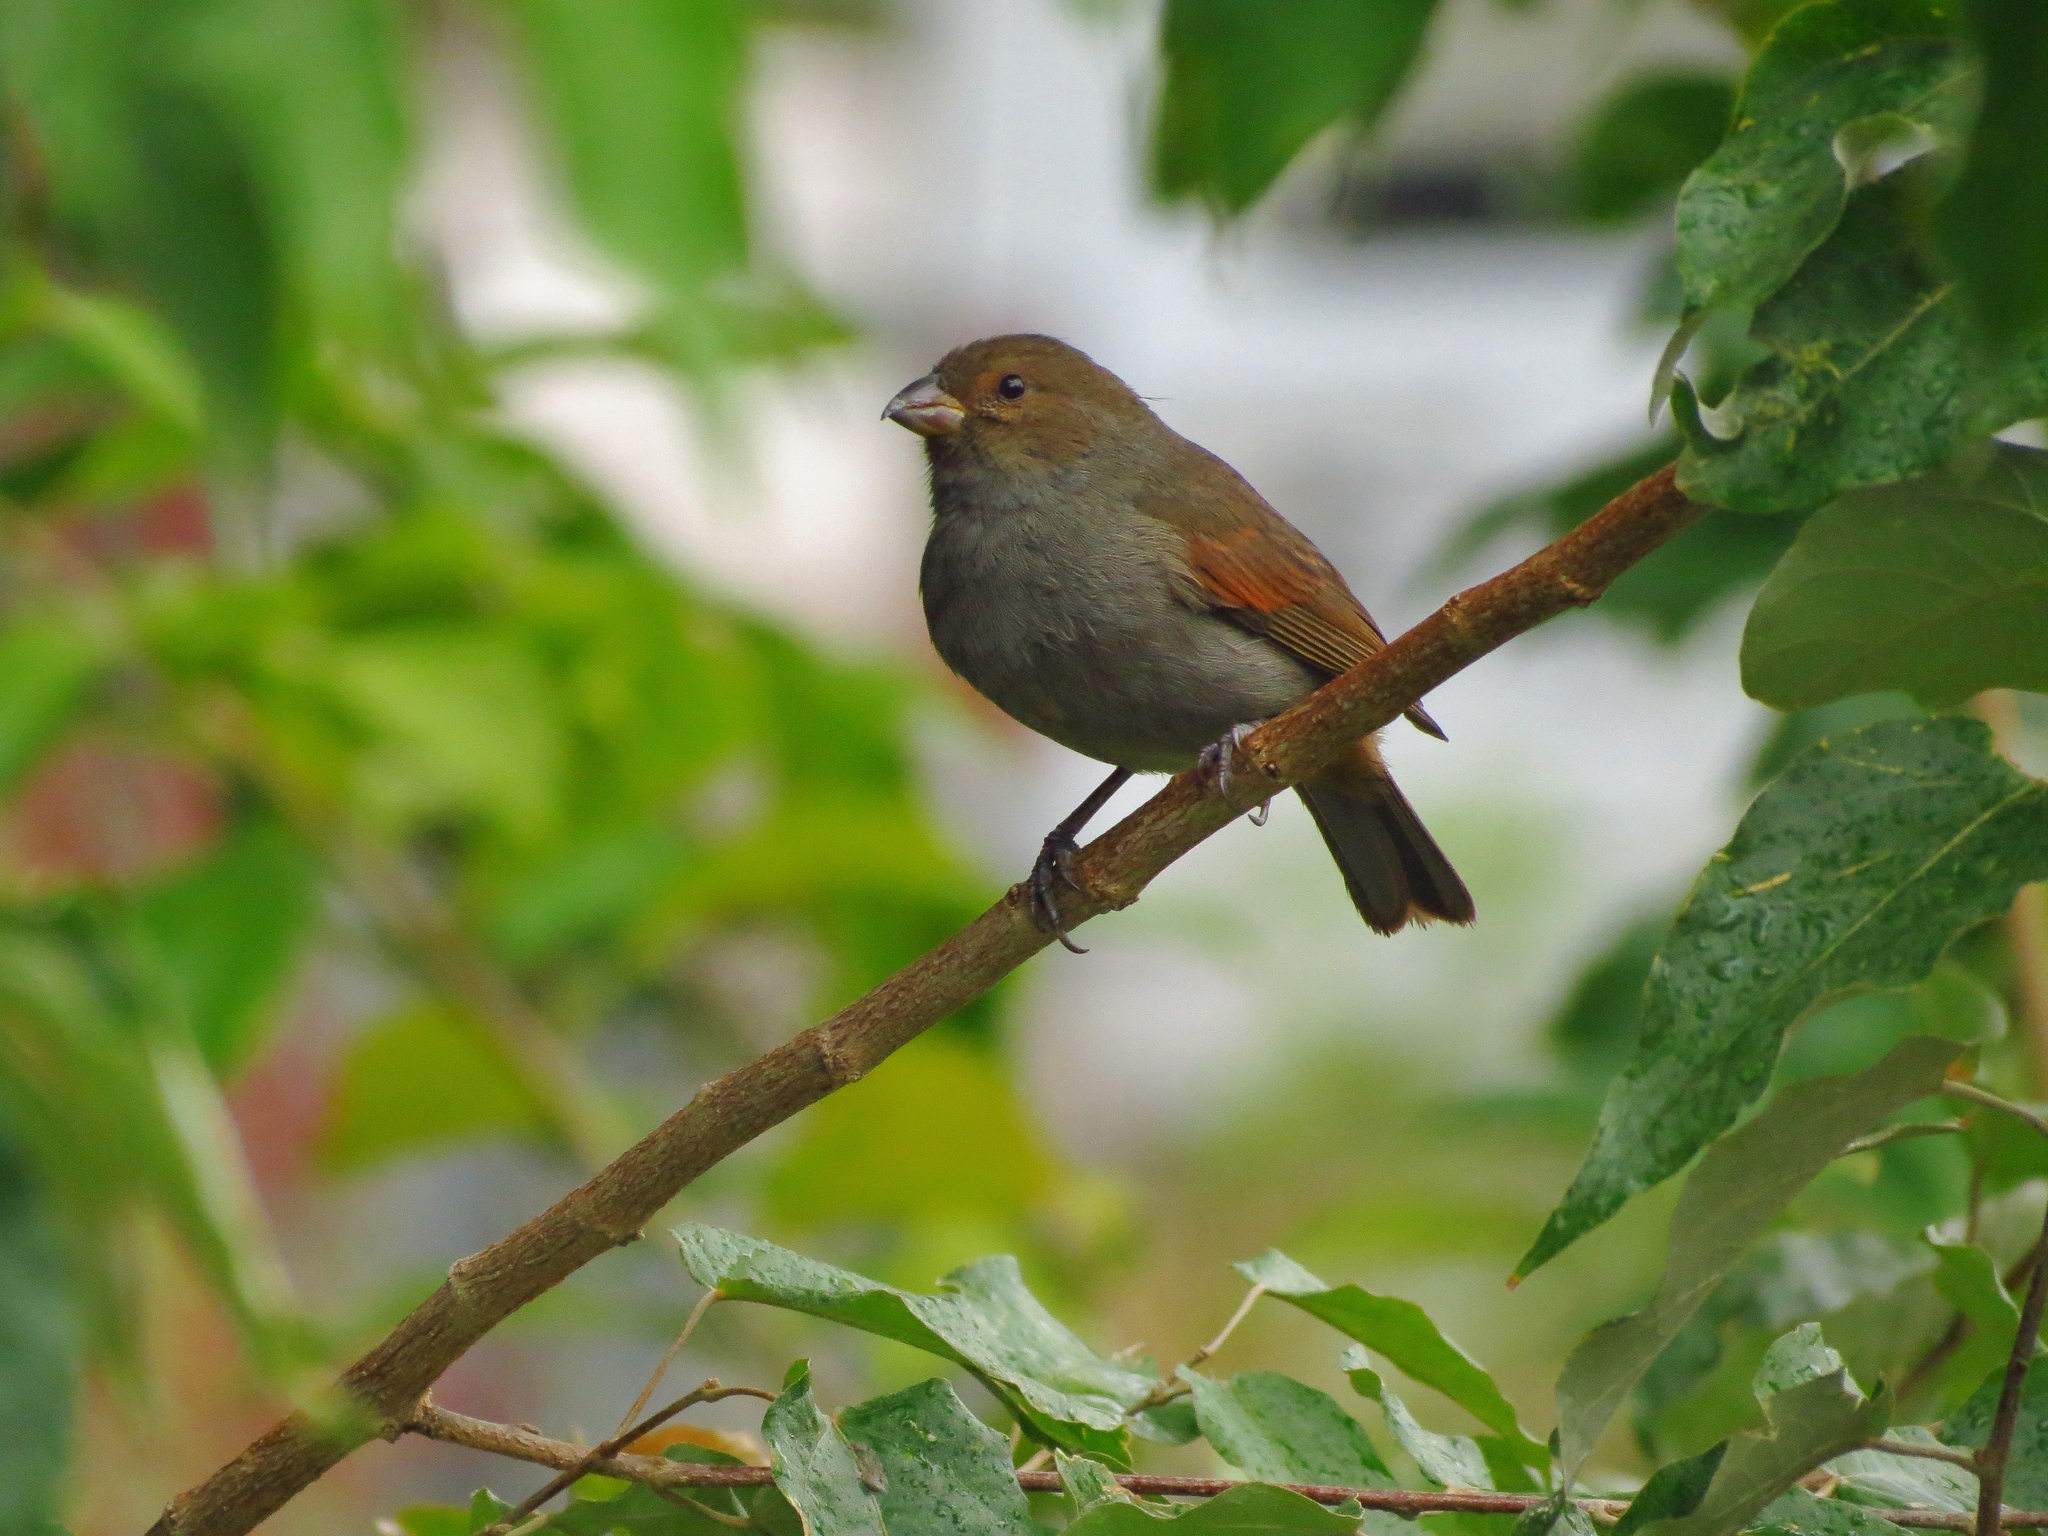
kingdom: Animalia
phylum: Chordata
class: Aves
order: Passeriformes
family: Thraupidae
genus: Loxigilla
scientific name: Loxigilla noctis
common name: Lesser antillean bullfinch
